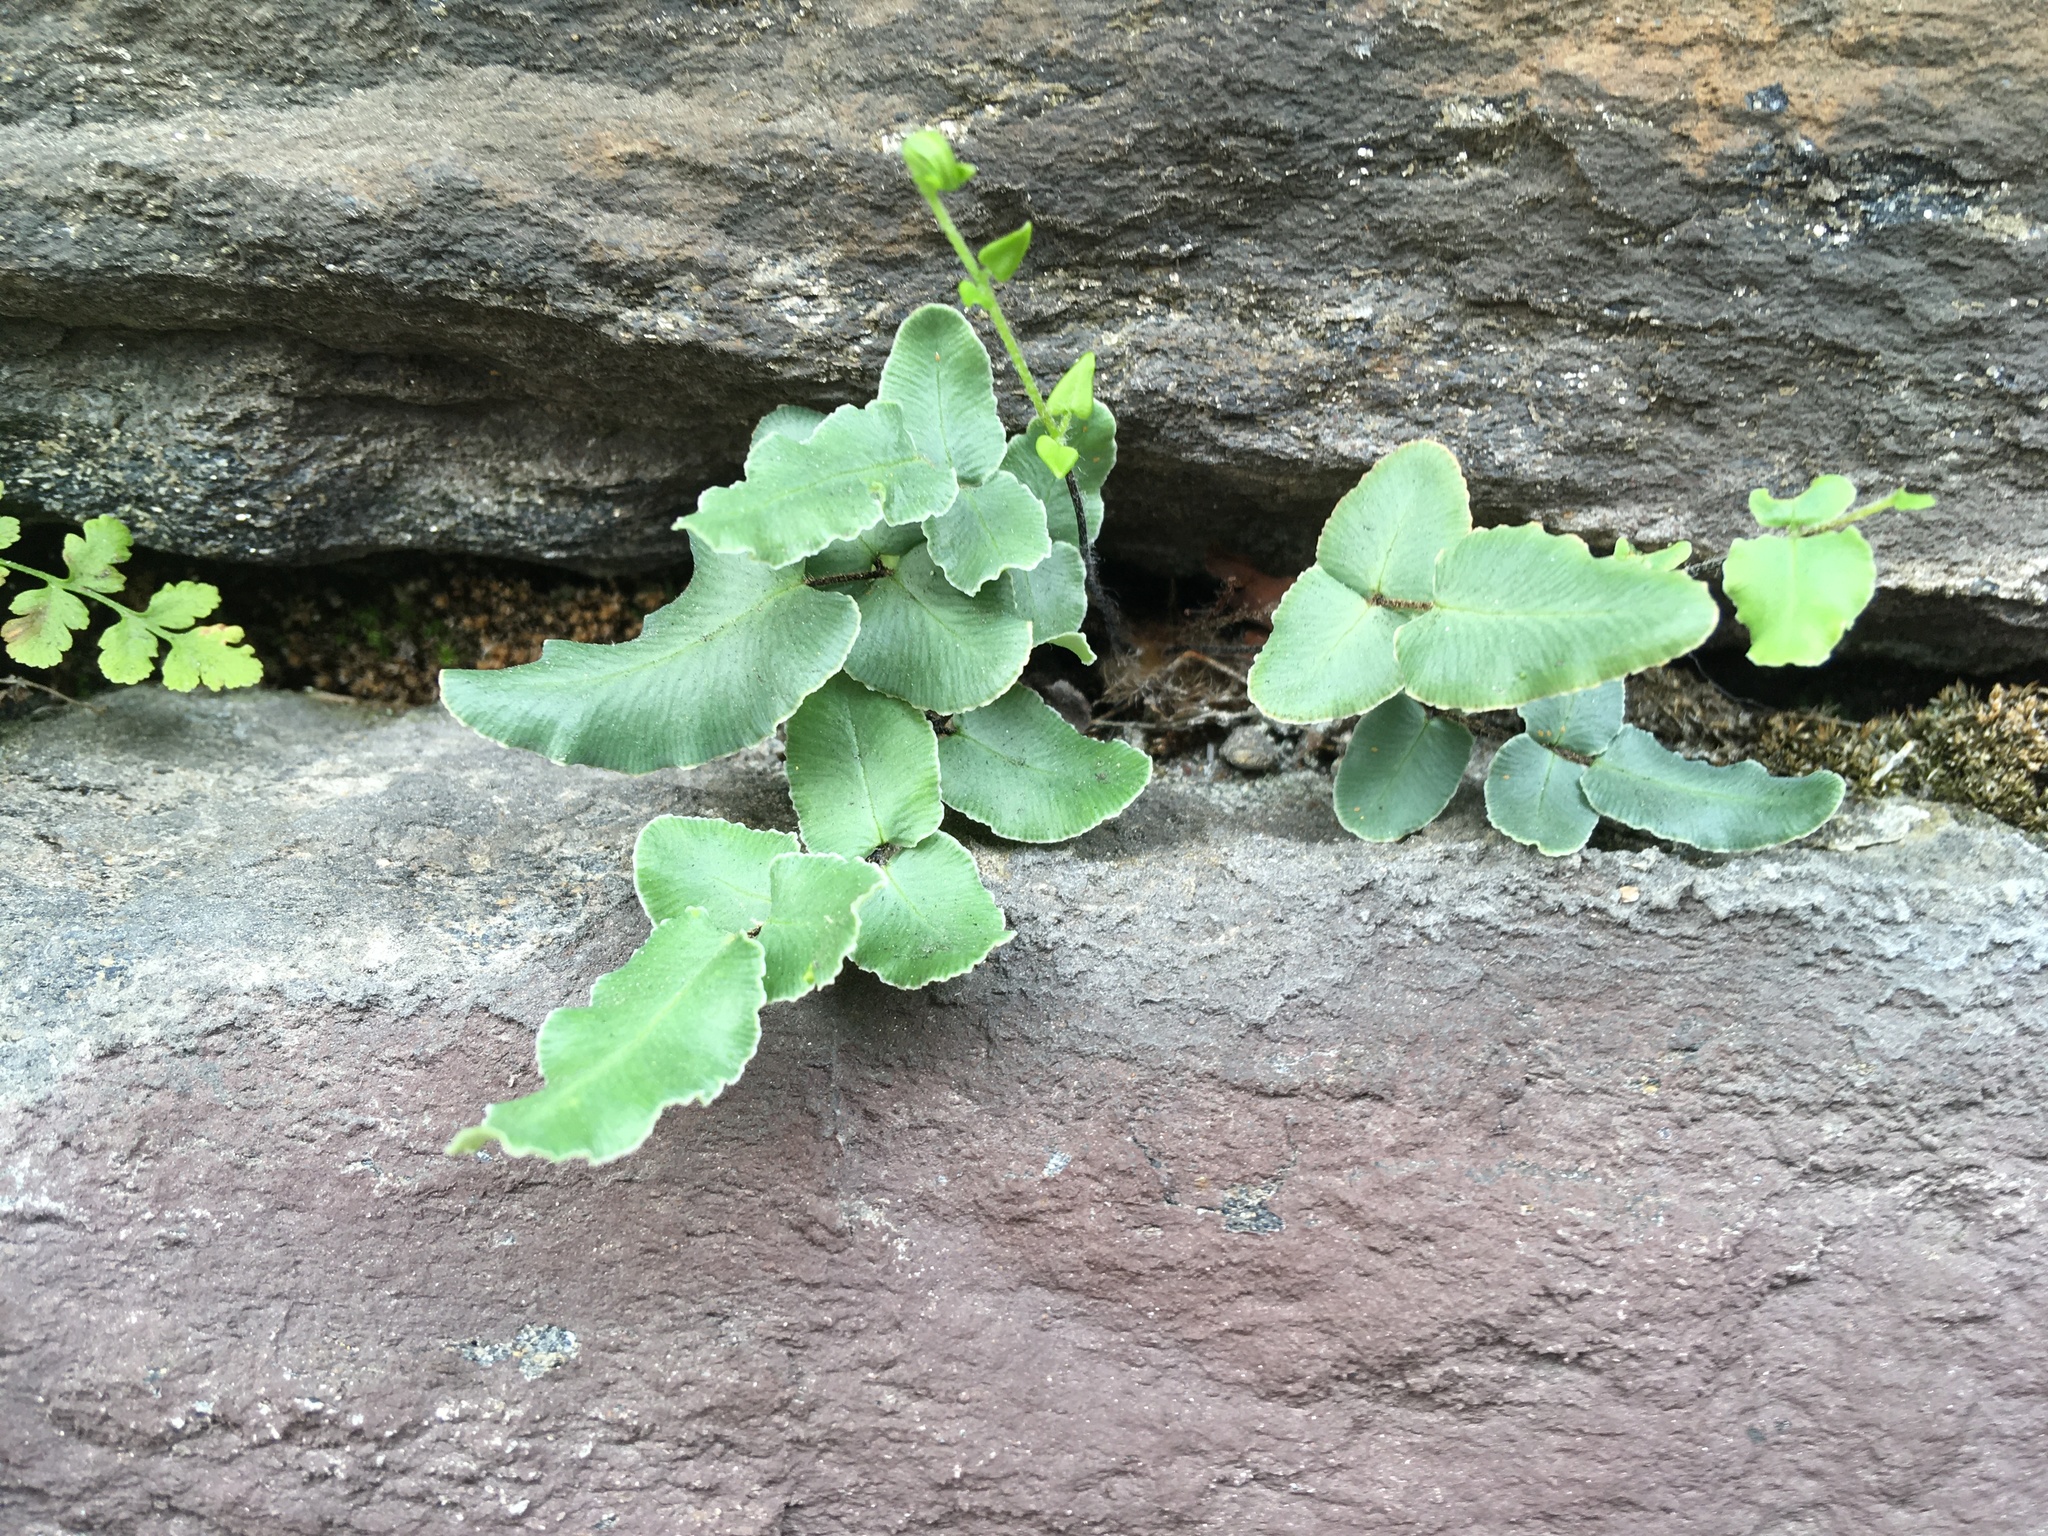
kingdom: Plantae
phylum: Tracheophyta
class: Polypodiopsida
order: Polypodiales
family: Pteridaceae
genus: Pellaea
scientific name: Pellaea atropurpurea
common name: Hairy cliffbrake
